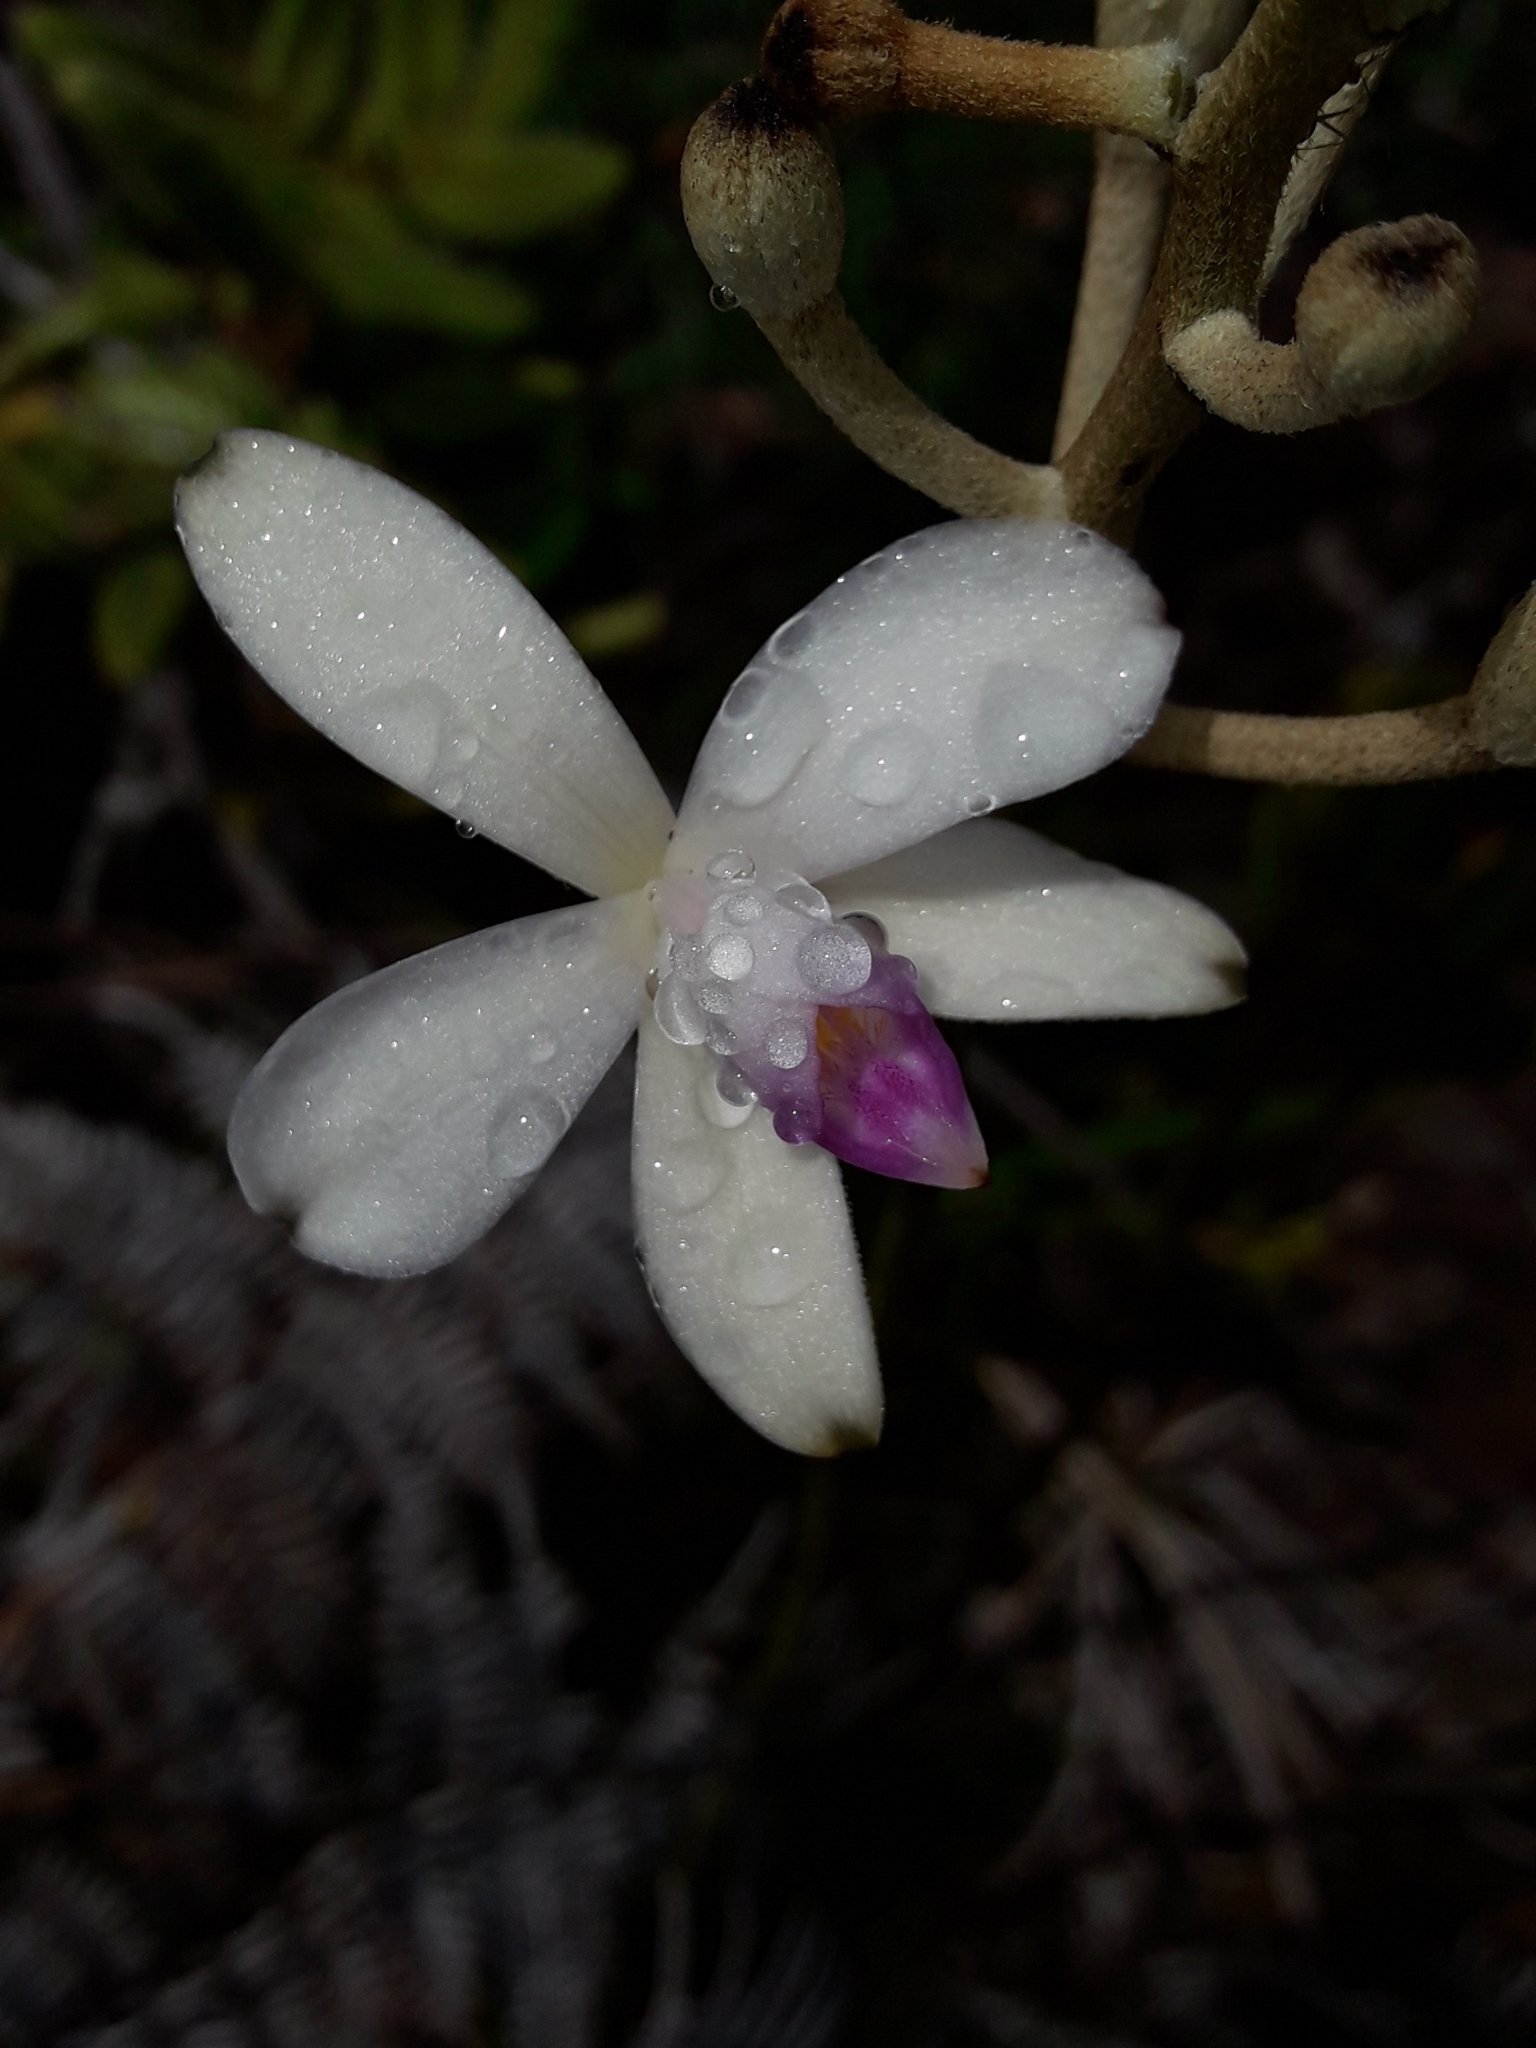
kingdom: Plantae
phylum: Tracheophyta
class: Liliopsida
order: Asparagales
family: Orchidaceae
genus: Eriaxis
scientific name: Eriaxis rigida
